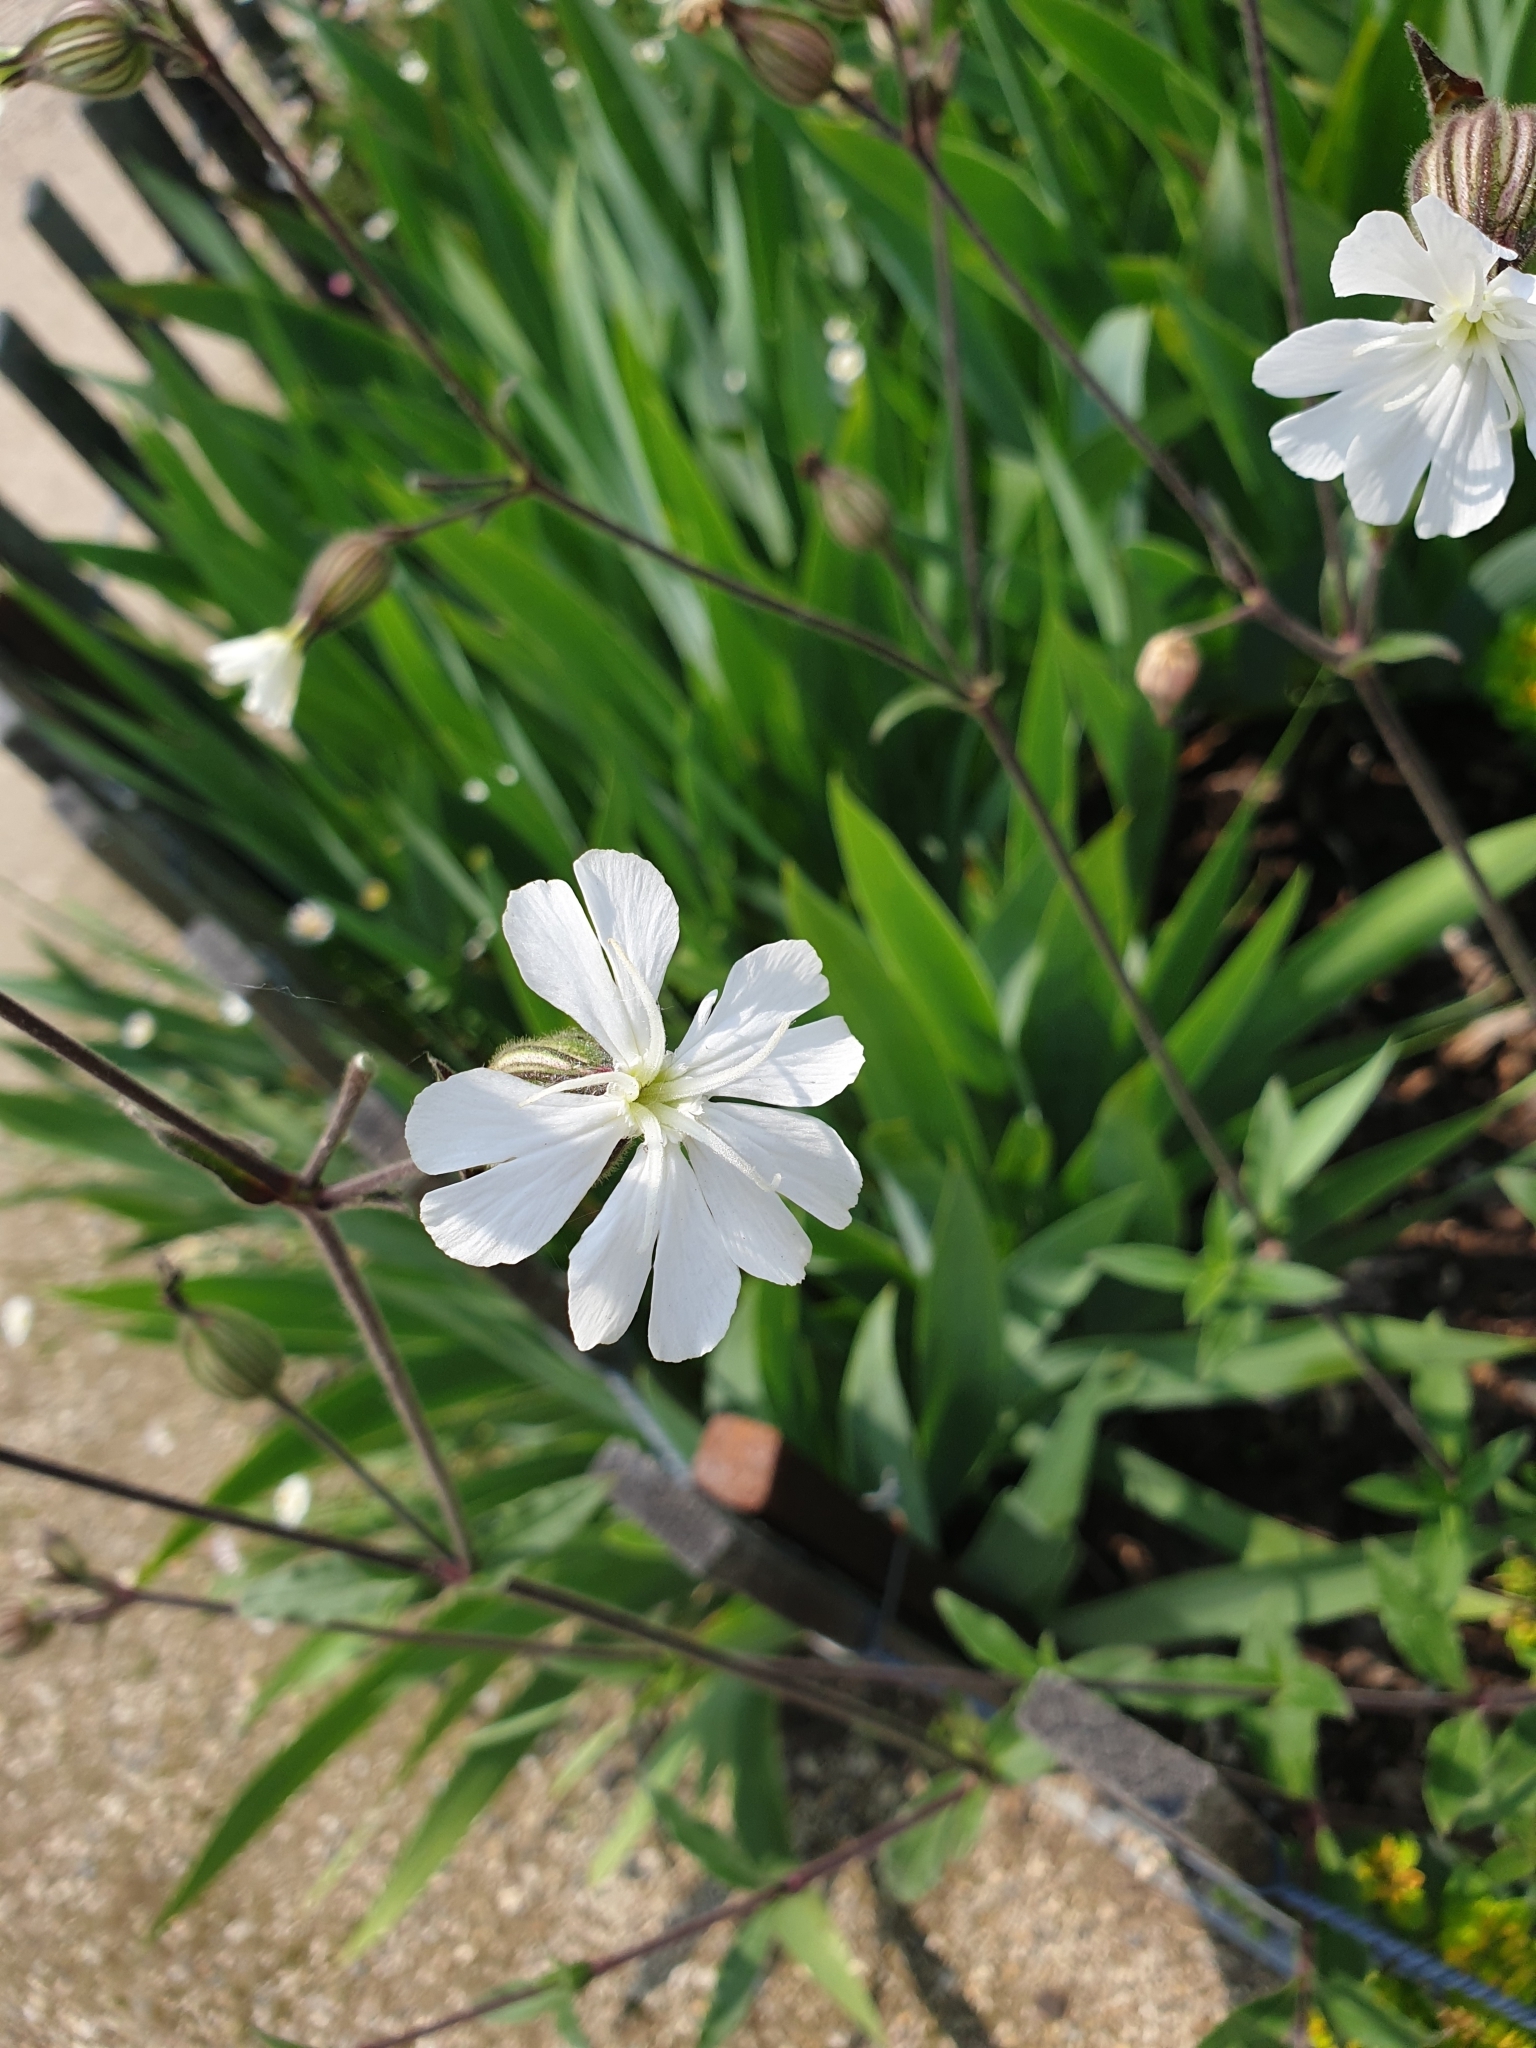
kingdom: Plantae
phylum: Tracheophyta
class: Magnoliopsida
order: Caryophyllales
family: Caryophyllaceae
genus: Silene
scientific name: Silene latifolia
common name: White campion
